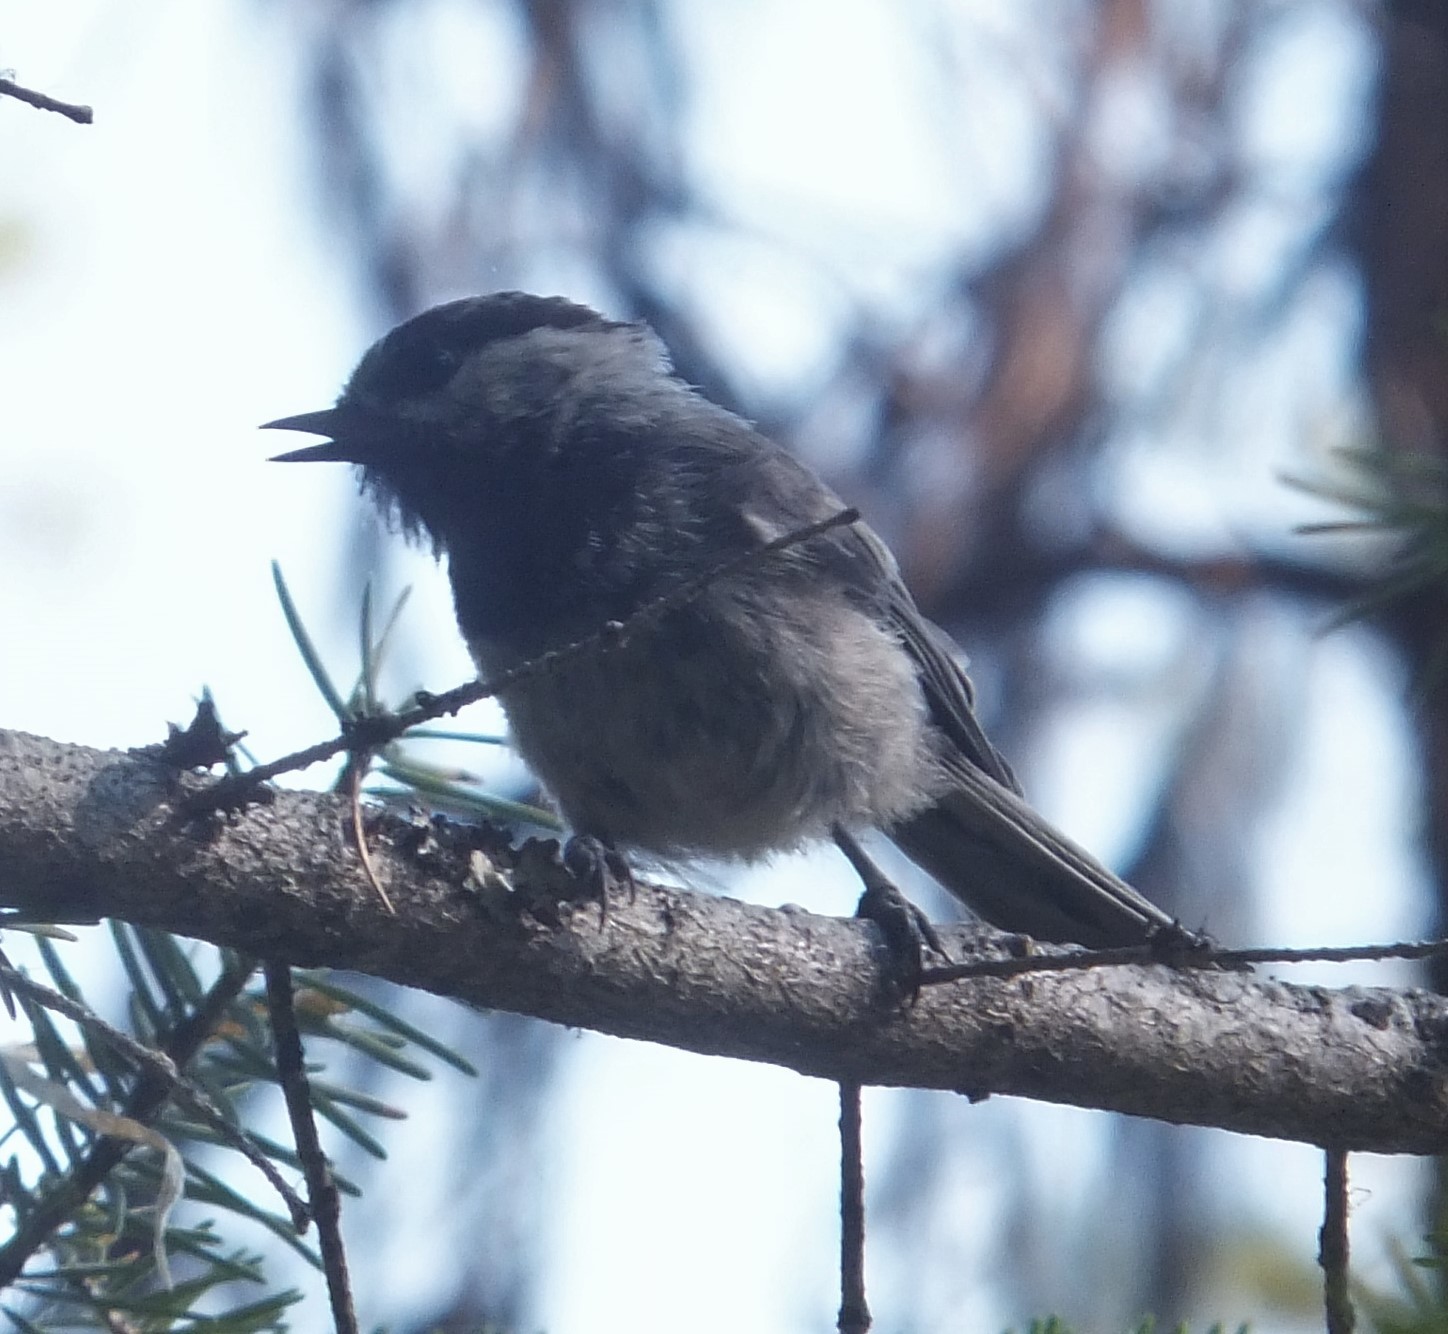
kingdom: Animalia
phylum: Chordata
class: Aves
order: Passeriformes
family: Paridae
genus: Poecile
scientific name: Poecile gambeli
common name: Mountain chickadee
